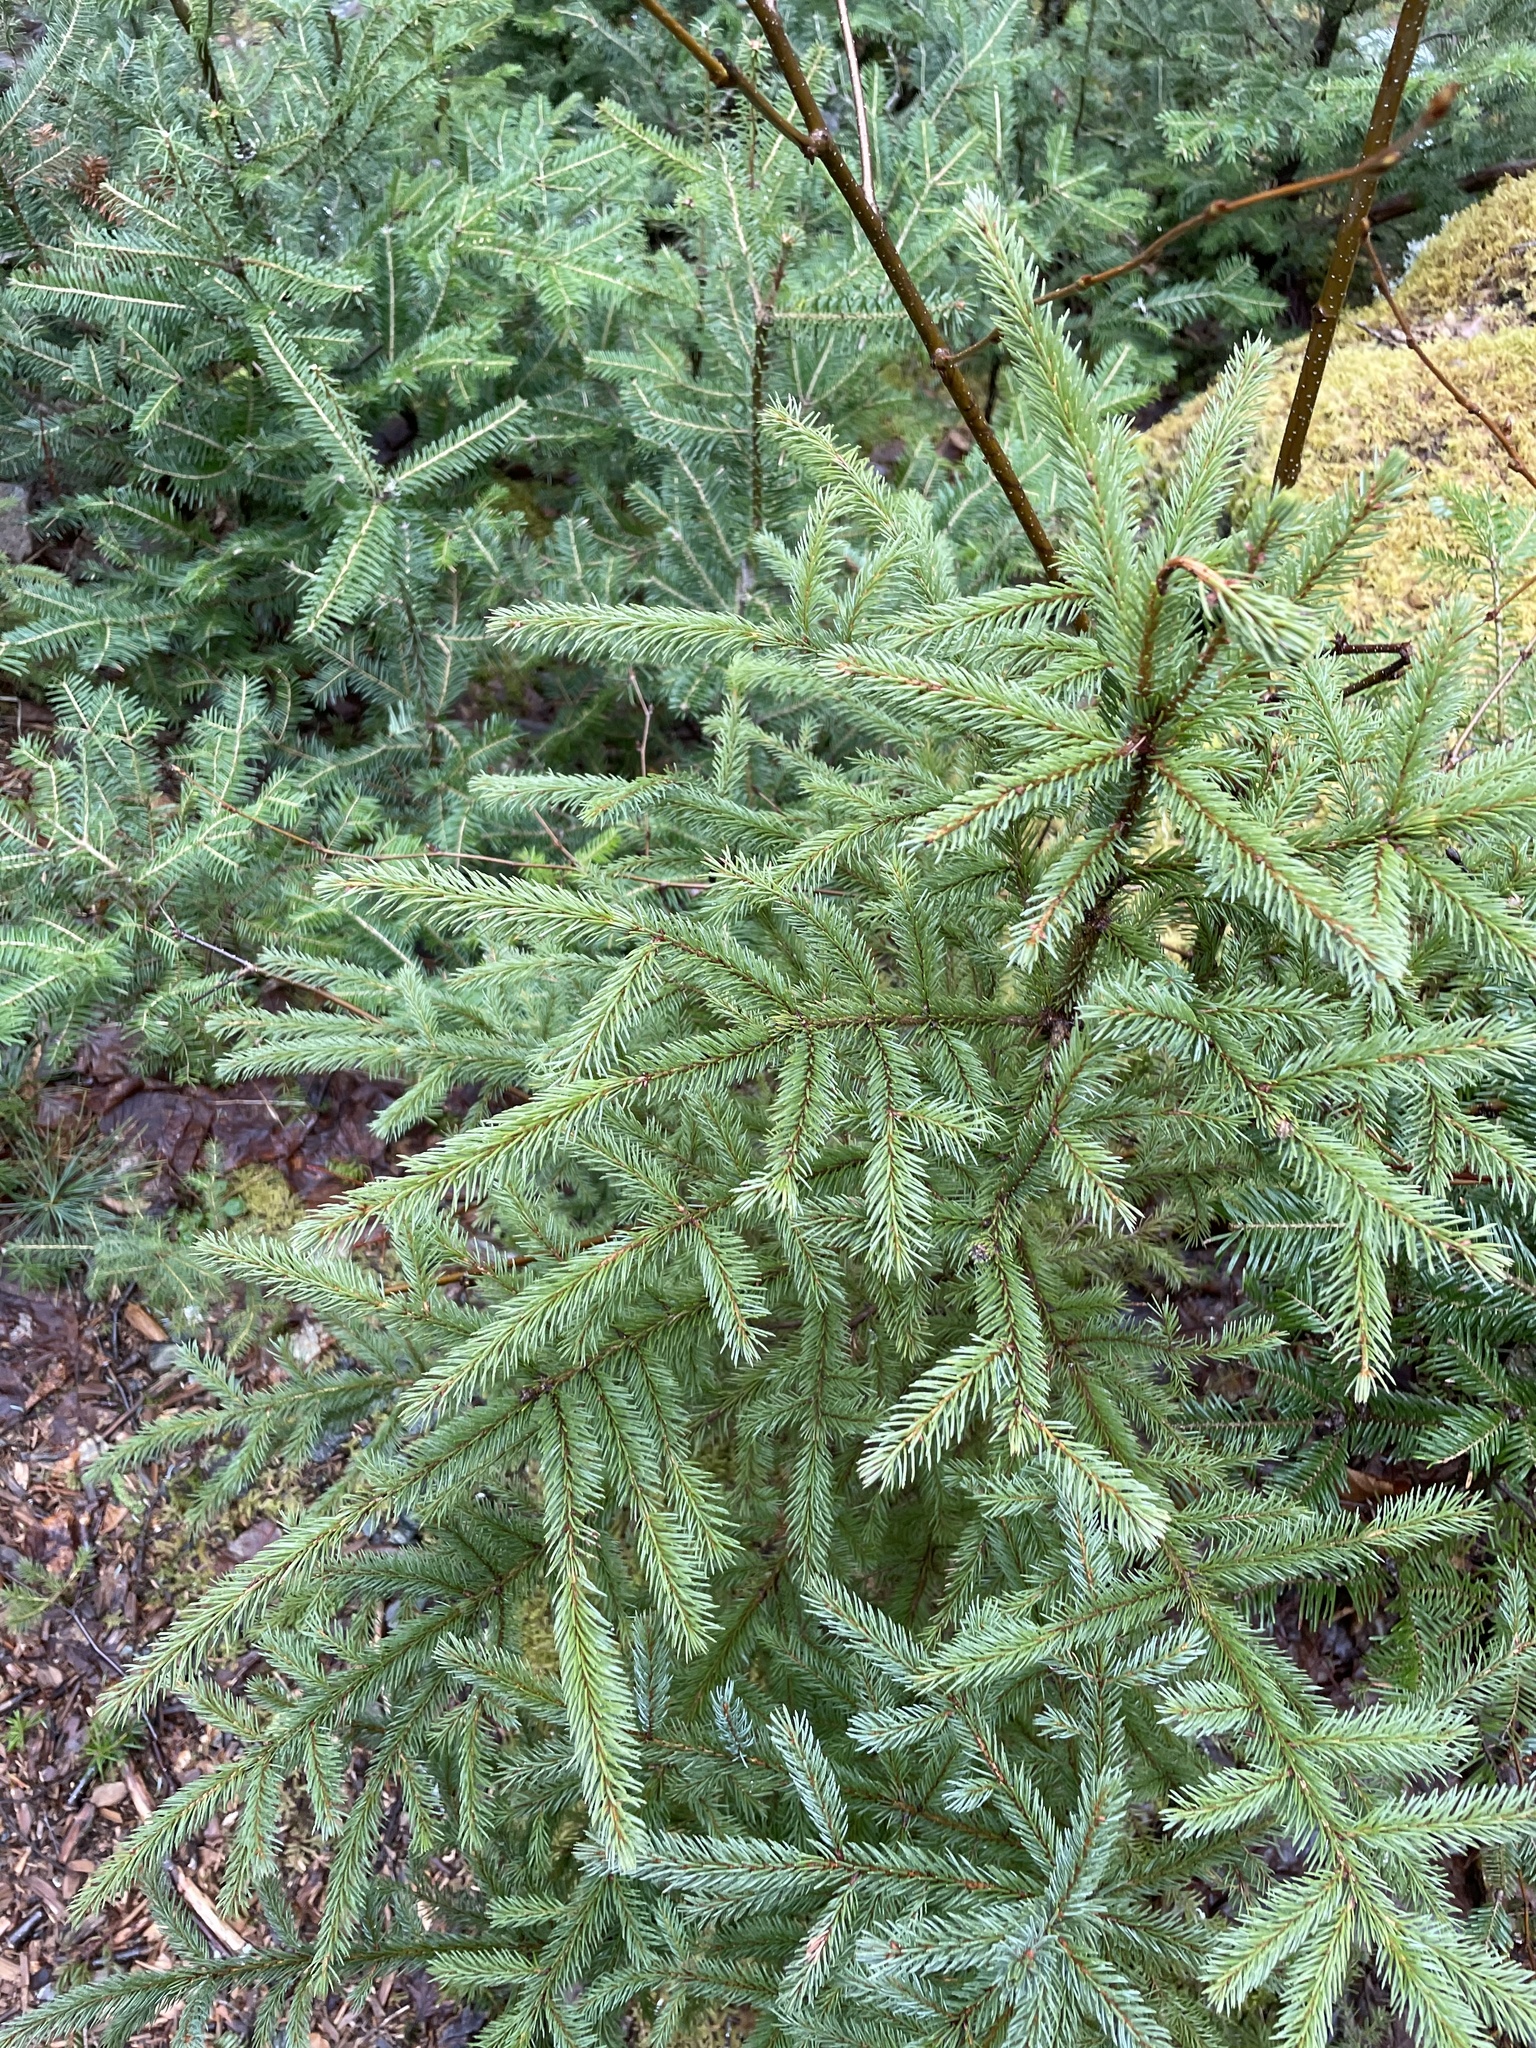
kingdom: Plantae
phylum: Tracheophyta
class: Pinopsida
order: Pinales
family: Pinaceae
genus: Picea
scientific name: Picea glauca
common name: White spruce
